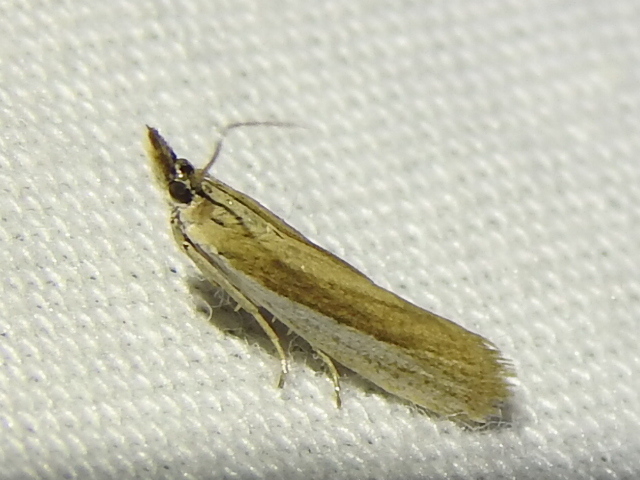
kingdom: Animalia
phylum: Arthropoda
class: Insecta
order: Lepidoptera
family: Pyralidae
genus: Tampa
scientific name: Tampa dimediatella
